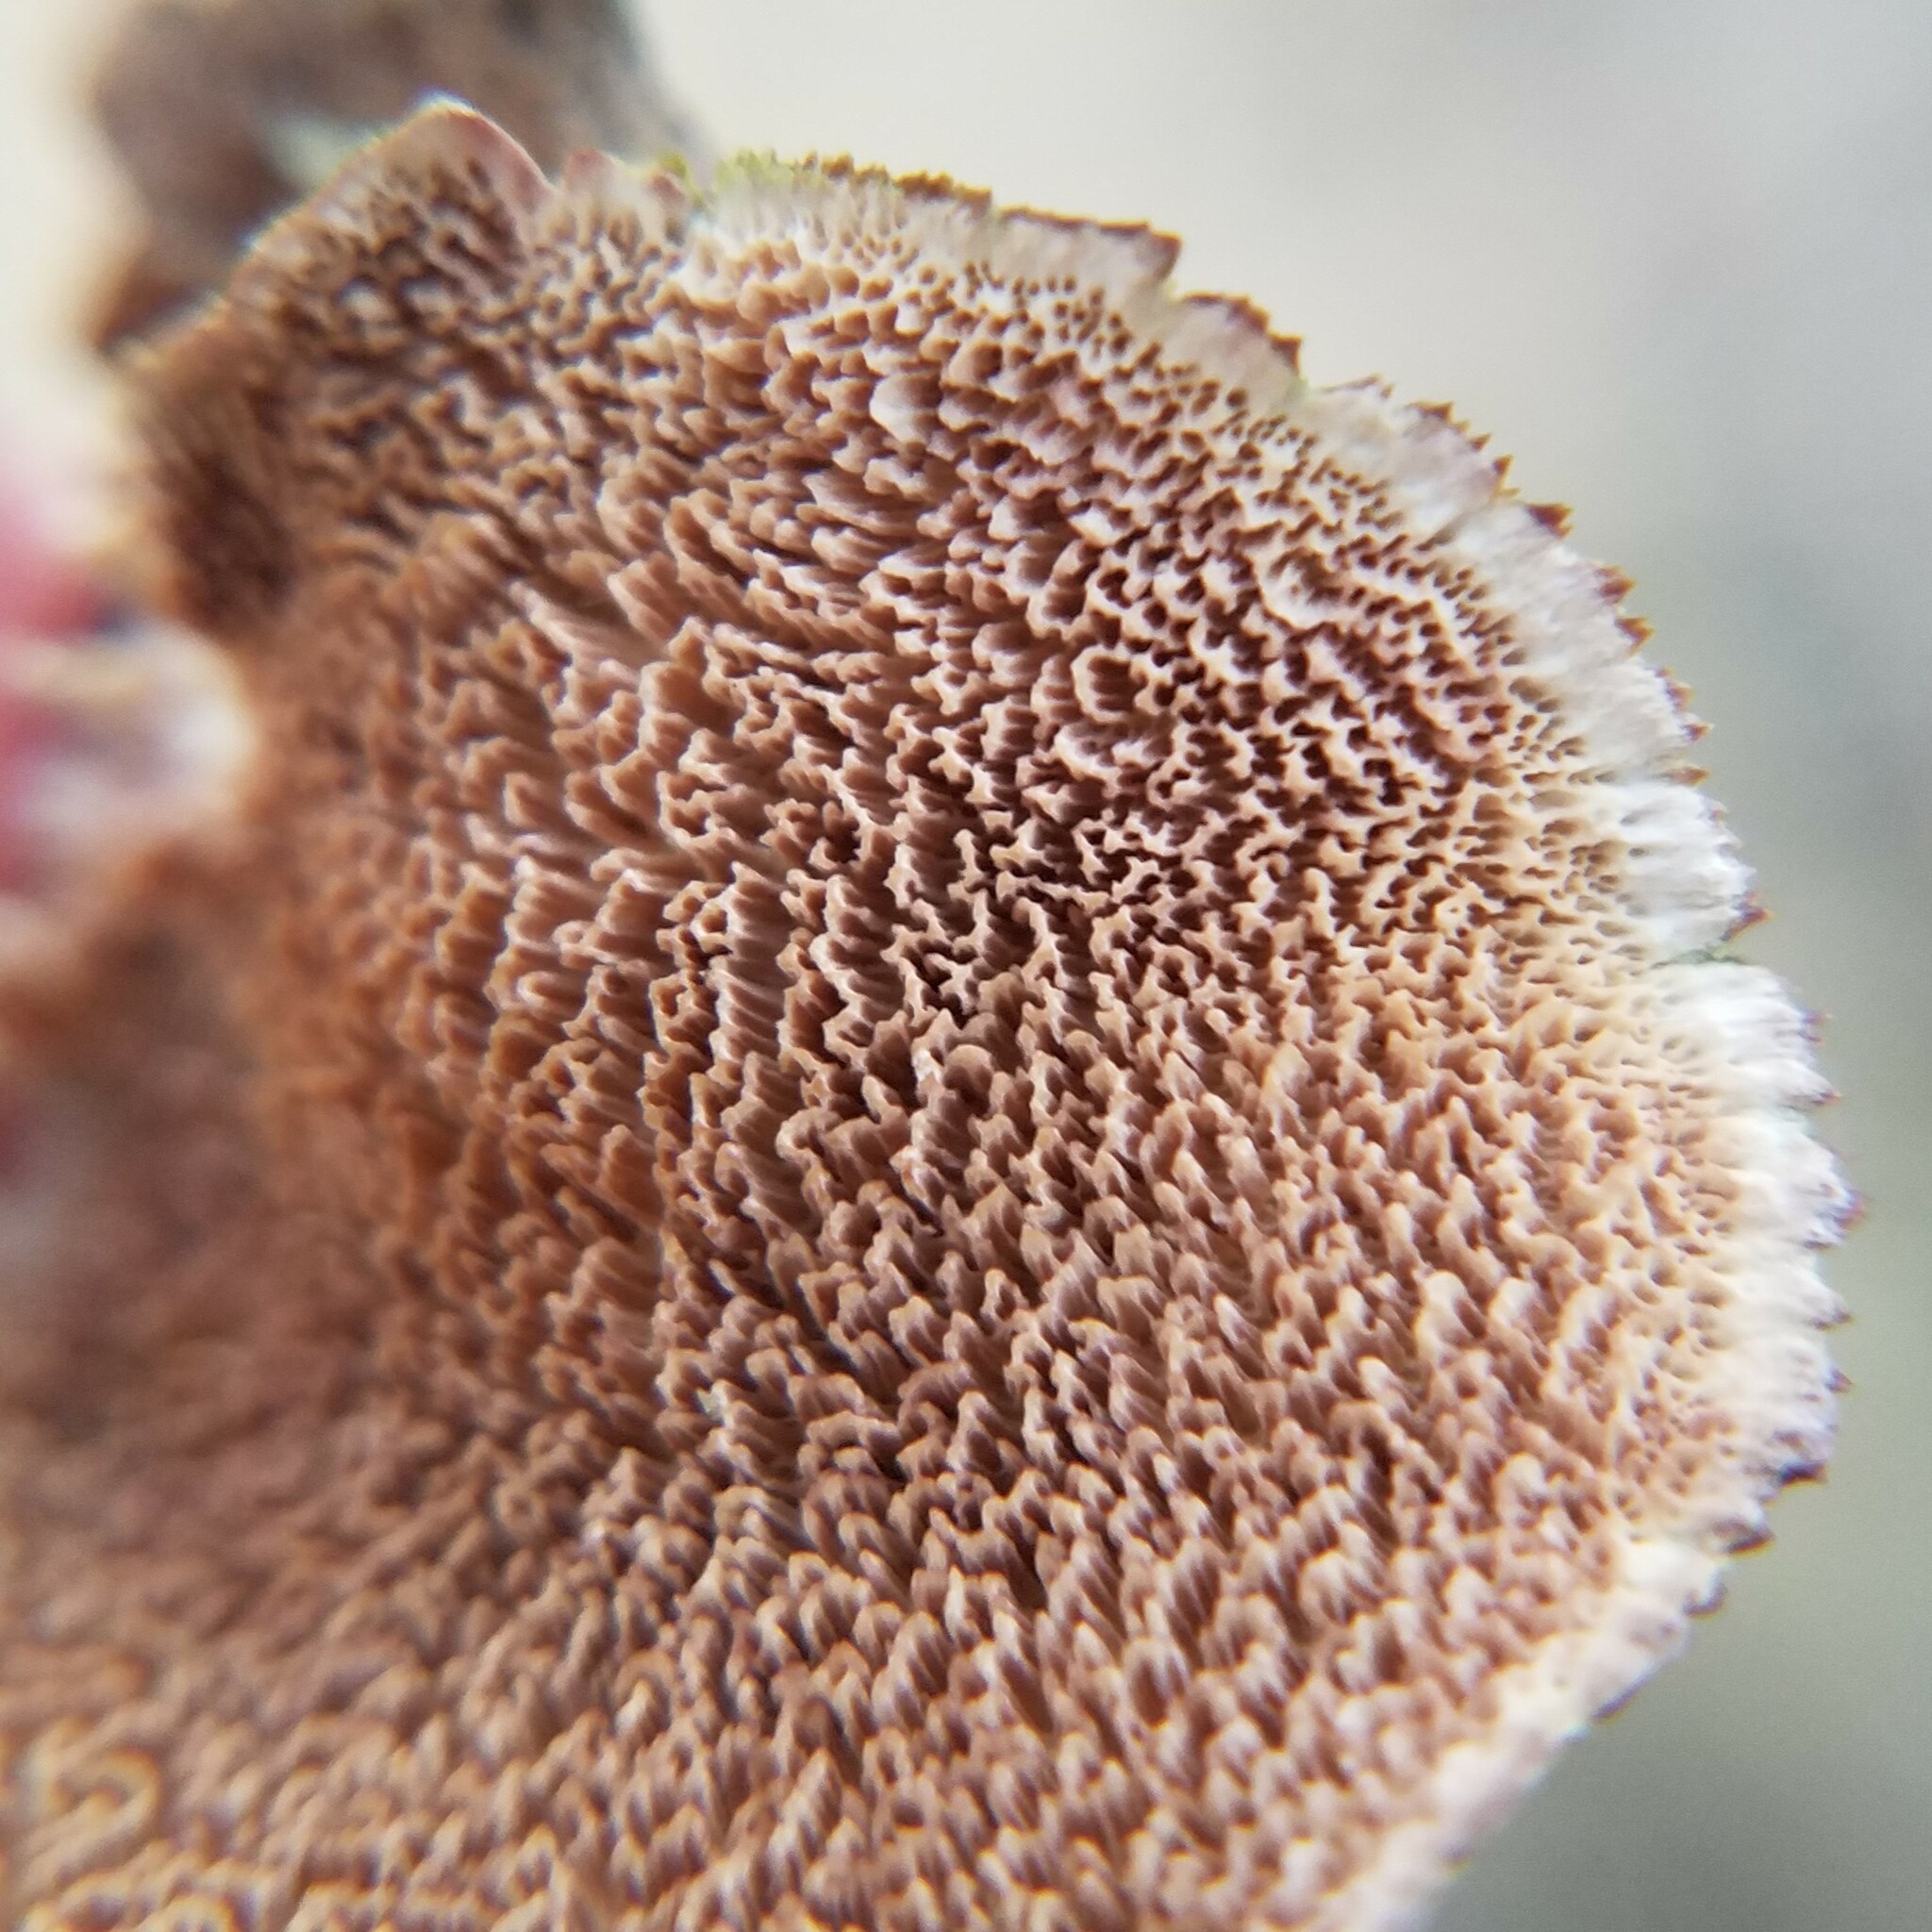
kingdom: Fungi
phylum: Basidiomycota
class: Agaricomycetes
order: Hymenochaetales
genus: Trichaptum
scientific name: Trichaptum biforme
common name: Violet-toothed polypore
